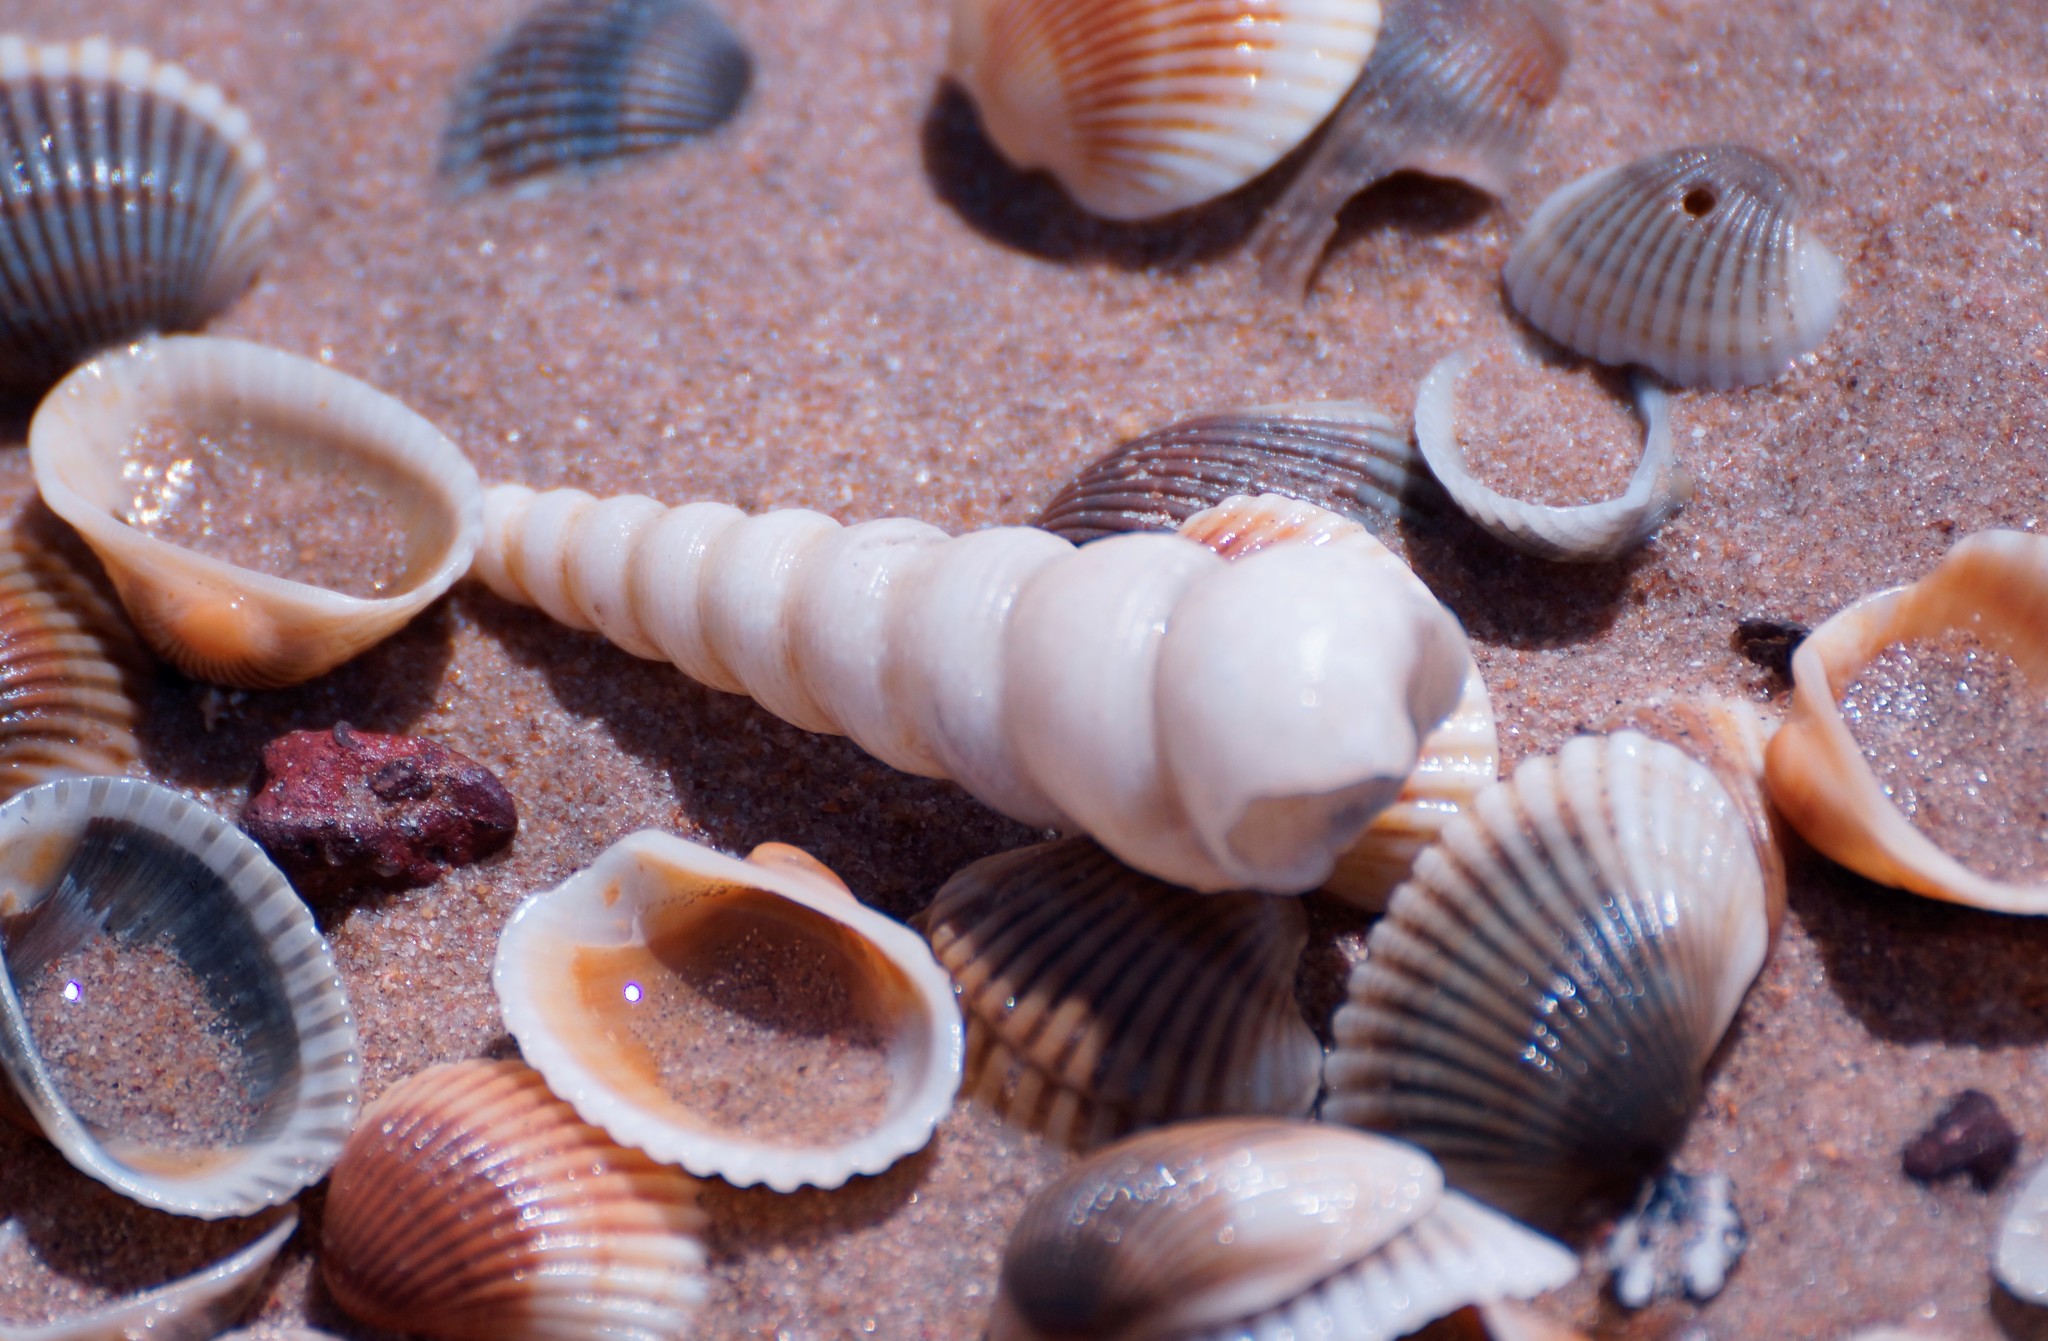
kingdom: Animalia
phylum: Mollusca
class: Gastropoda
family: Turritellidae
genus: Turritella
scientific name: Turritella terebra
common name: Auger screw shell
